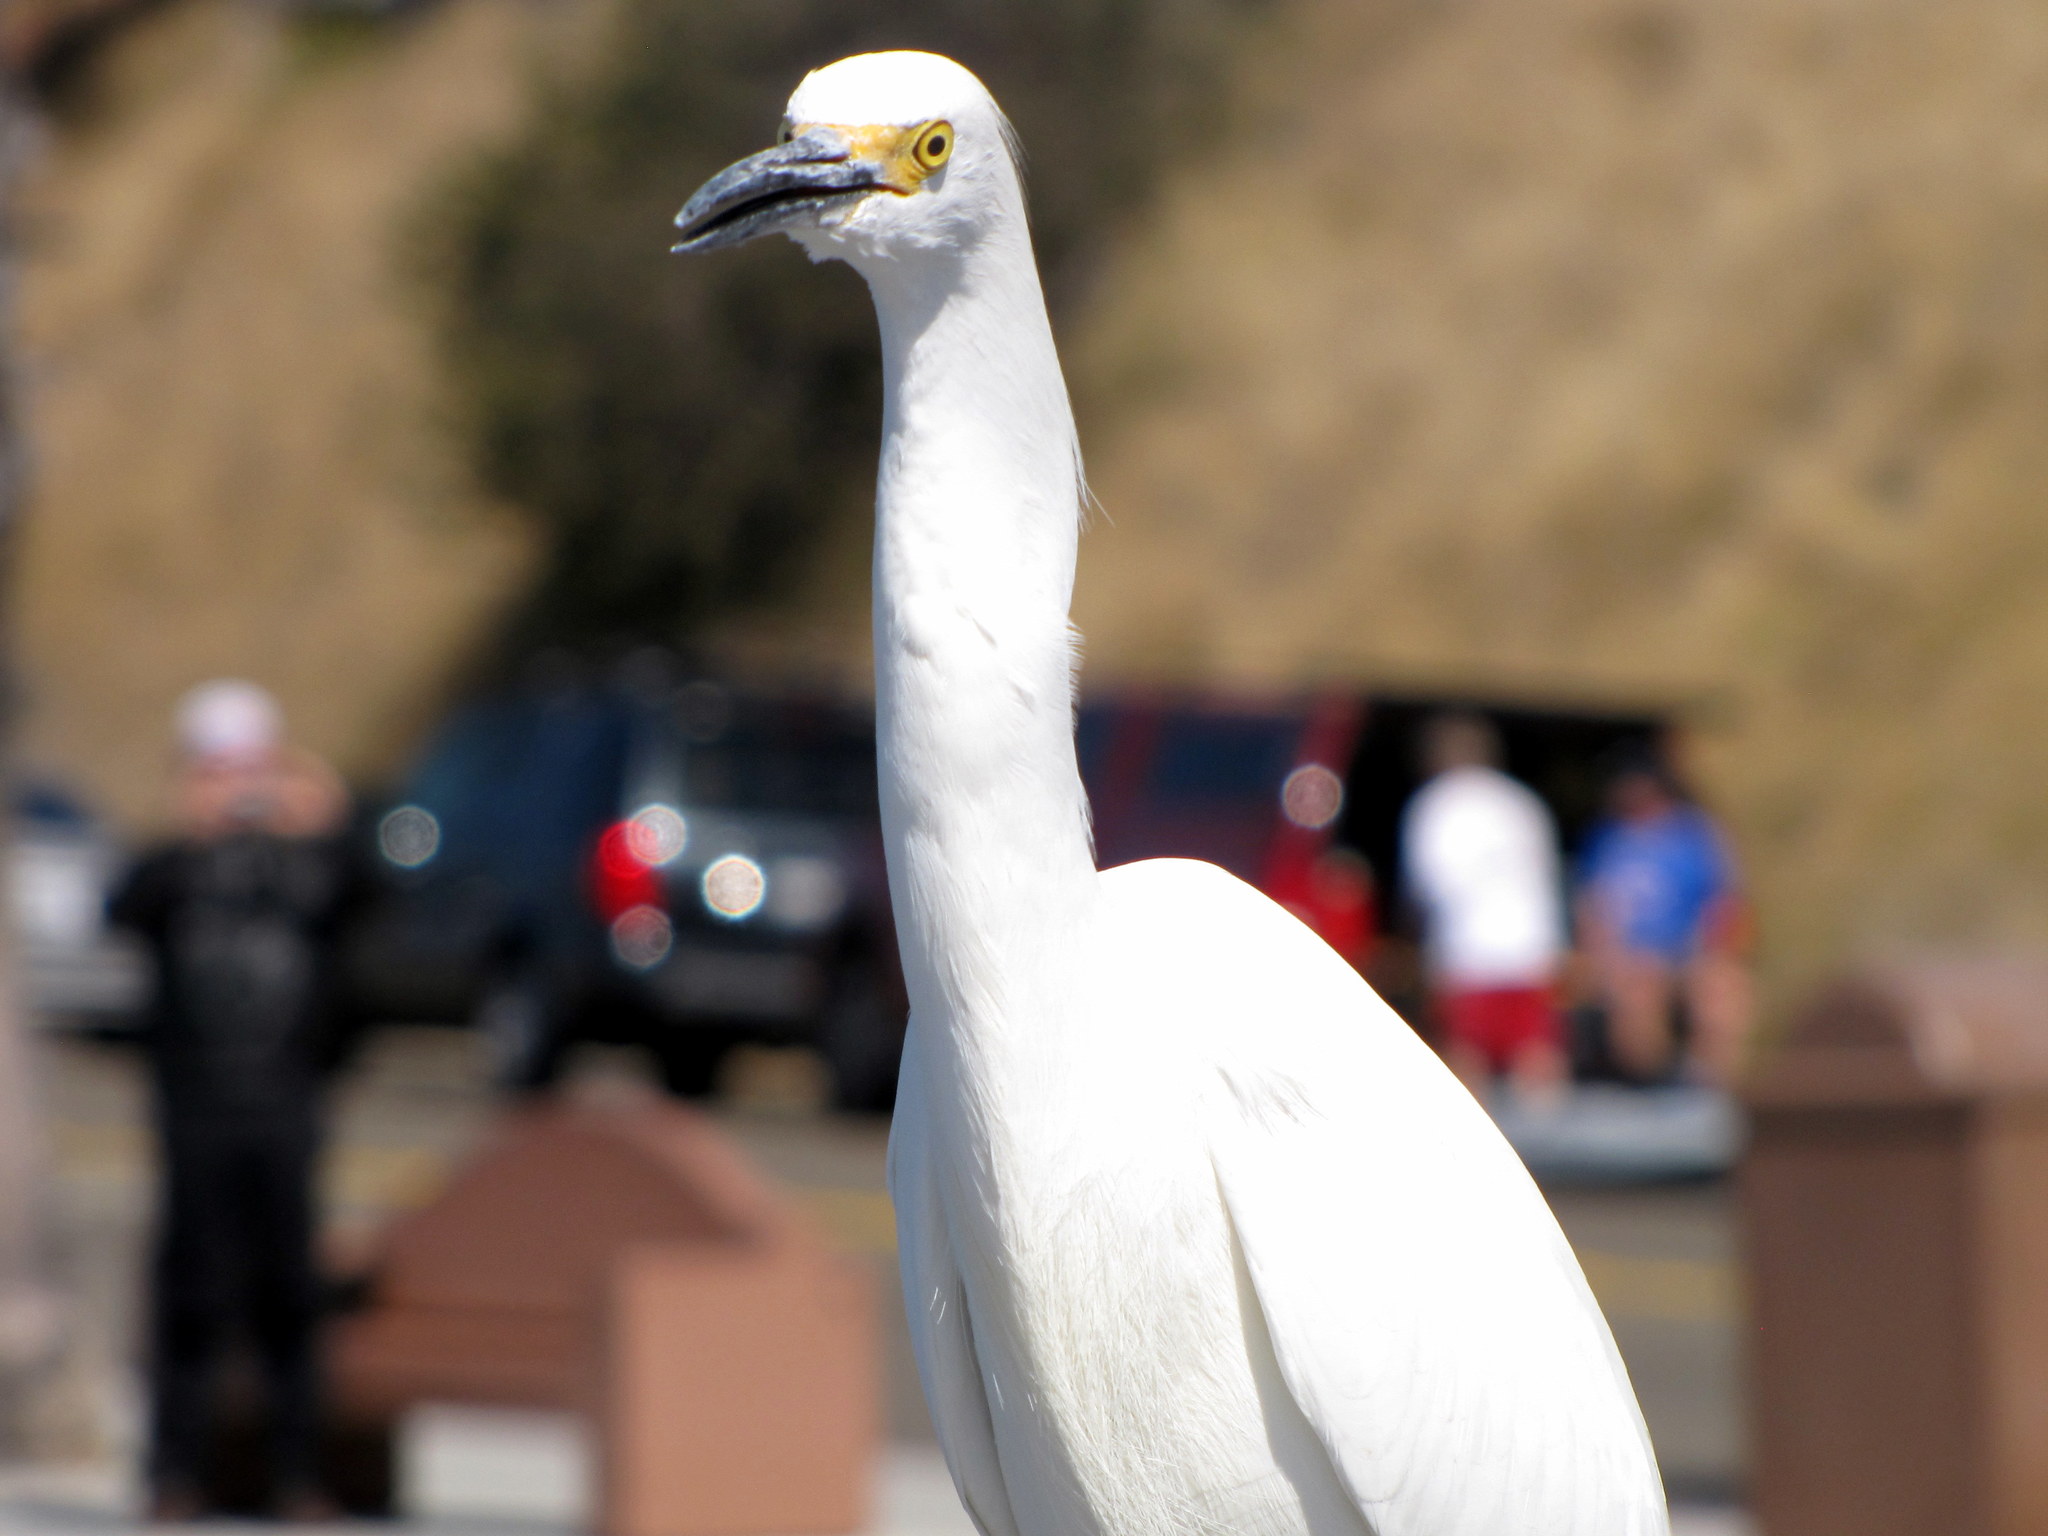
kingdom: Animalia
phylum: Chordata
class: Aves
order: Pelecaniformes
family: Ardeidae
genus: Egretta
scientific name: Egretta thula
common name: Snowy egret
